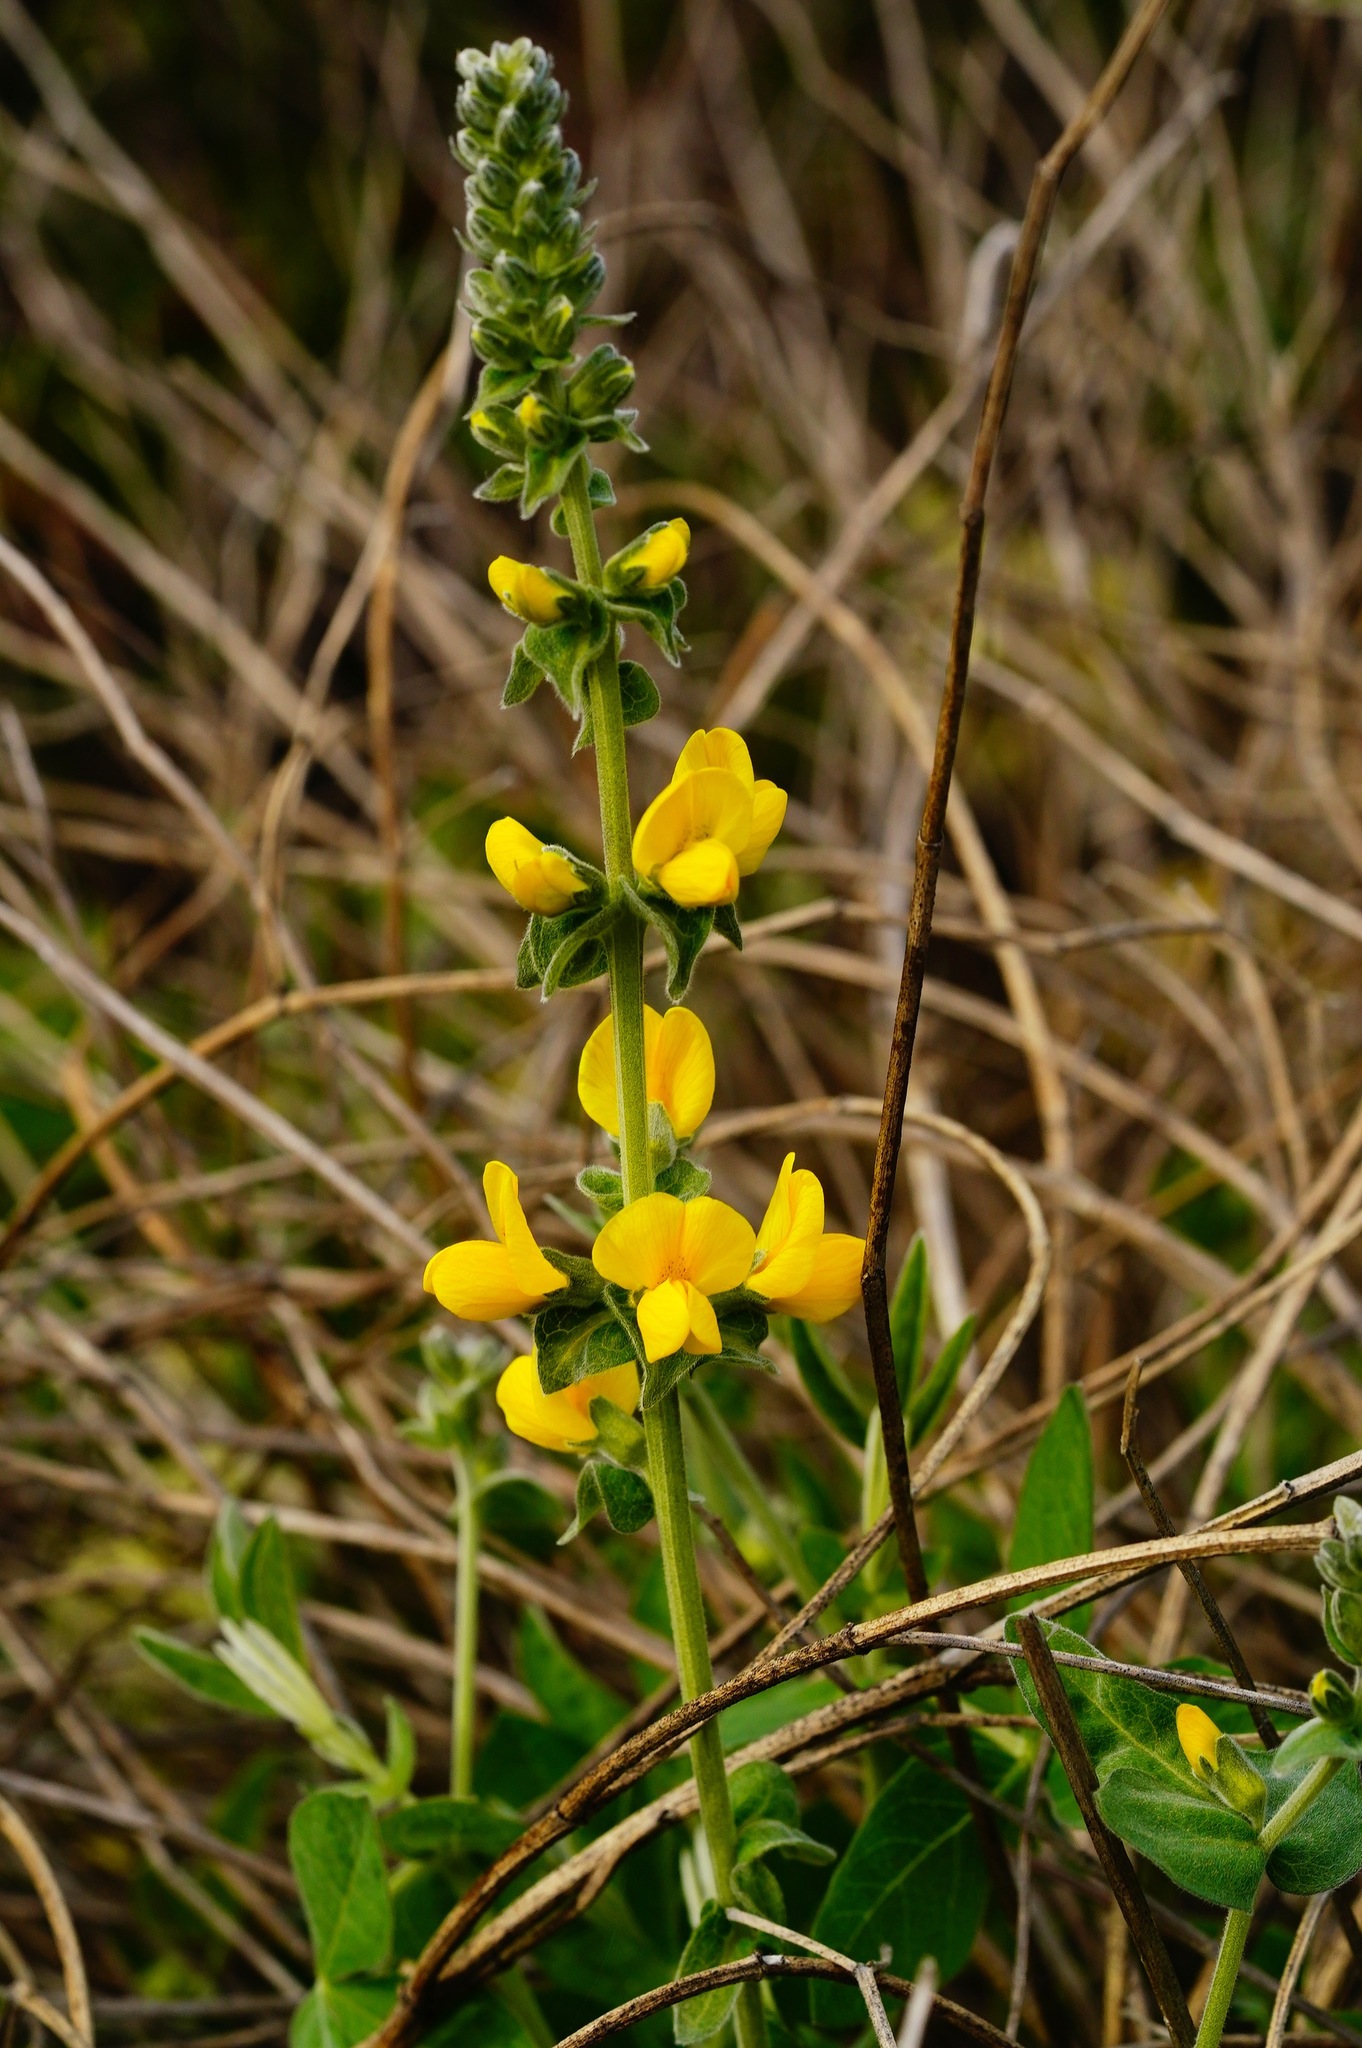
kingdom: Plantae
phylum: Tracheophyta
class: Magnoliopsida
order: Fabales
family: Fabaceae
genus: Thermopsis
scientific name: Thermopsis californica
